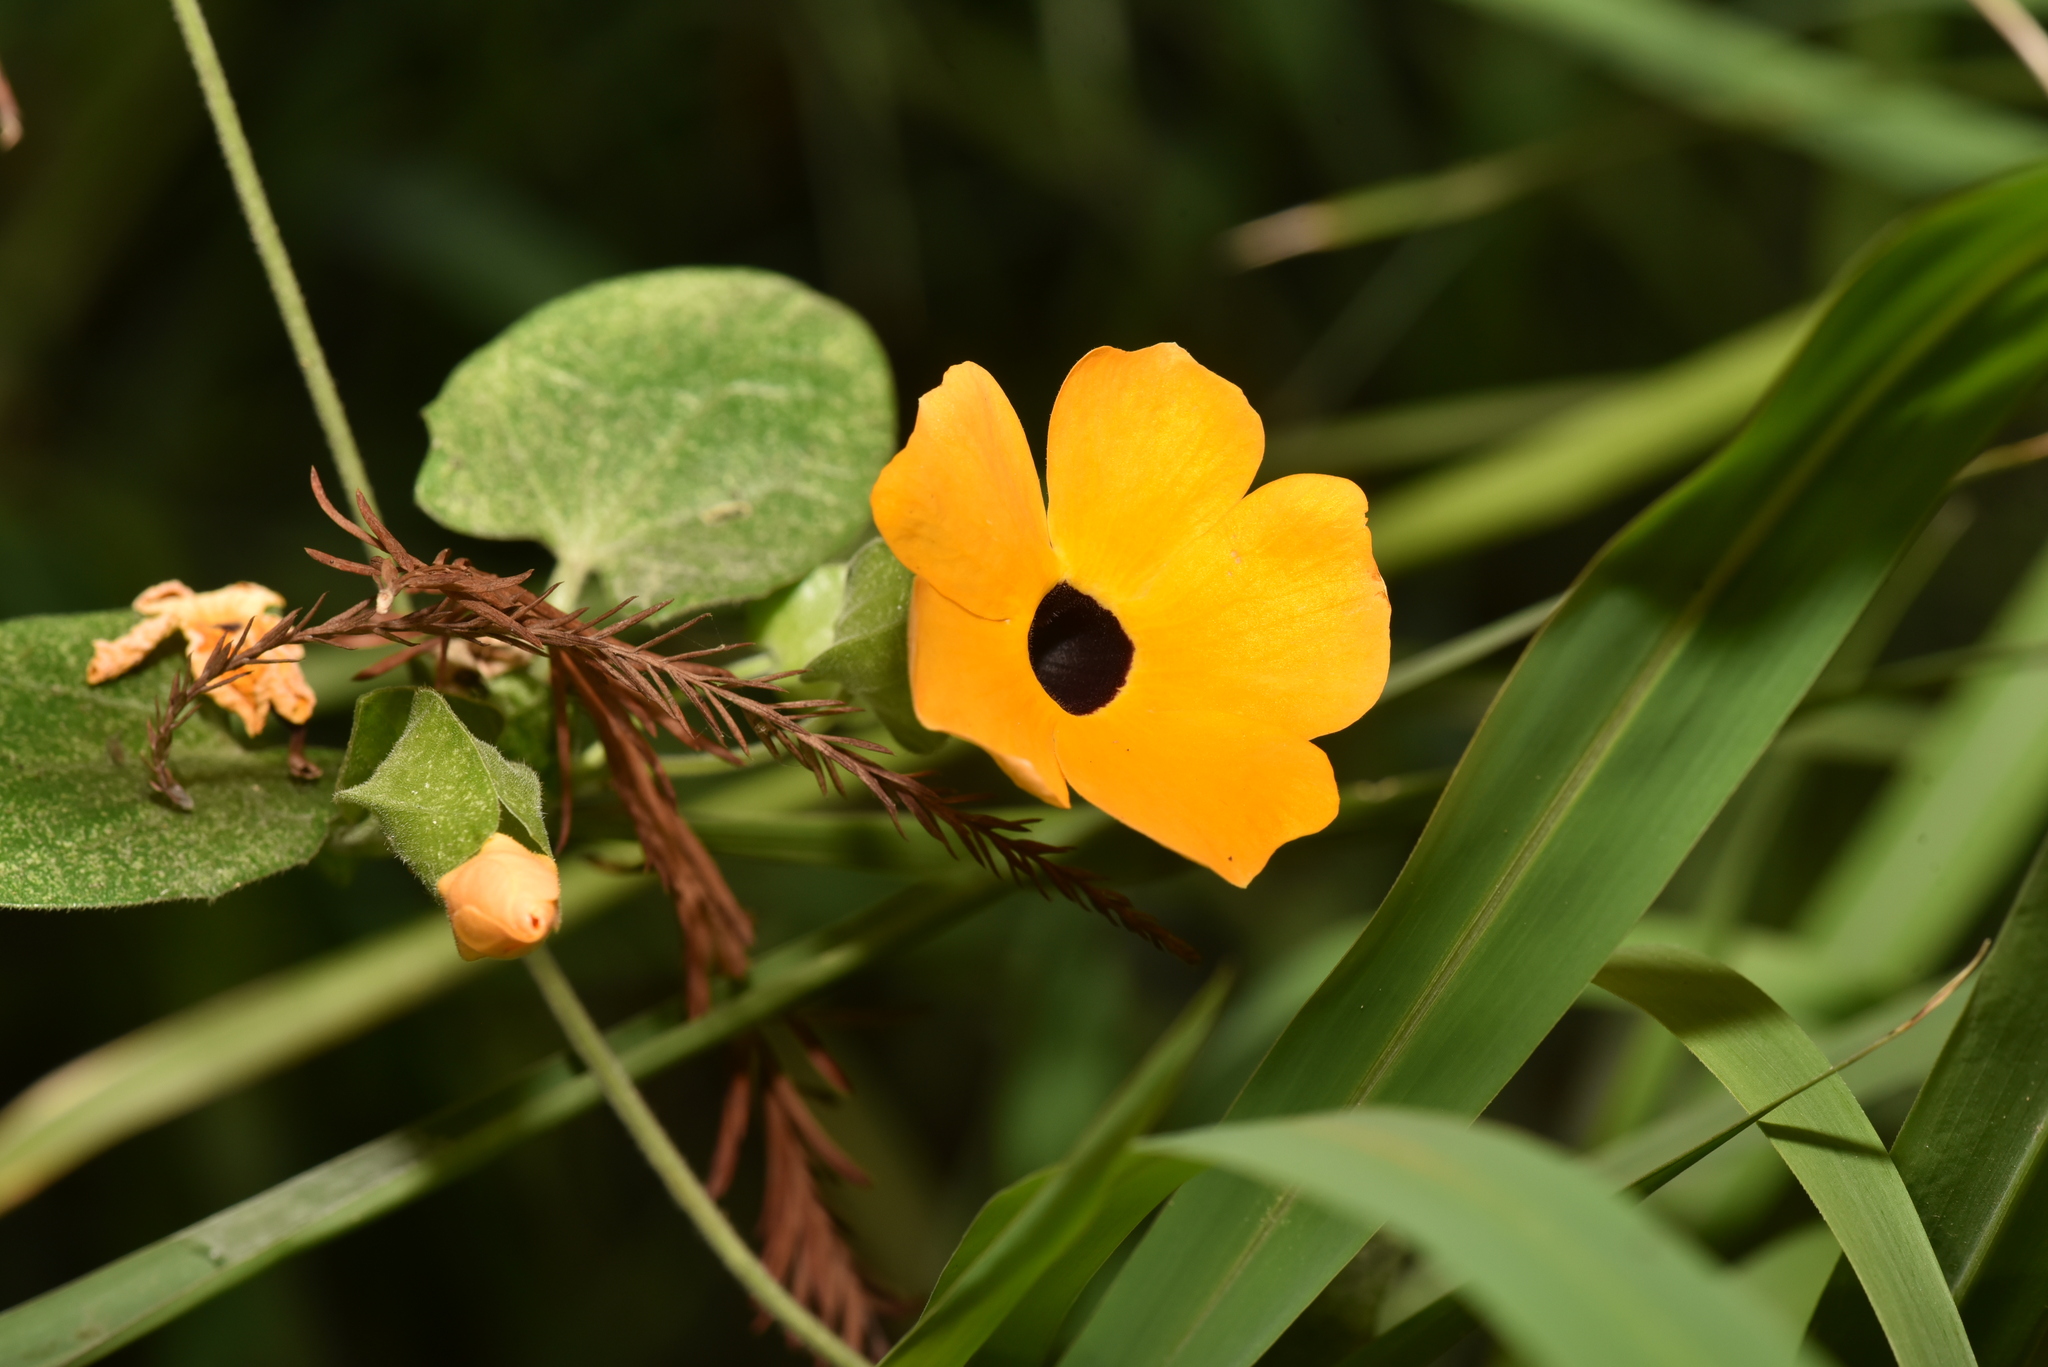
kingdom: Plantae
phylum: Tracheophyta
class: Magnoliopsida
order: Lamiales
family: Acanthaceae
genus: Thunbergia
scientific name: Thunbergia alata
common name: Blackeyed susan vine
